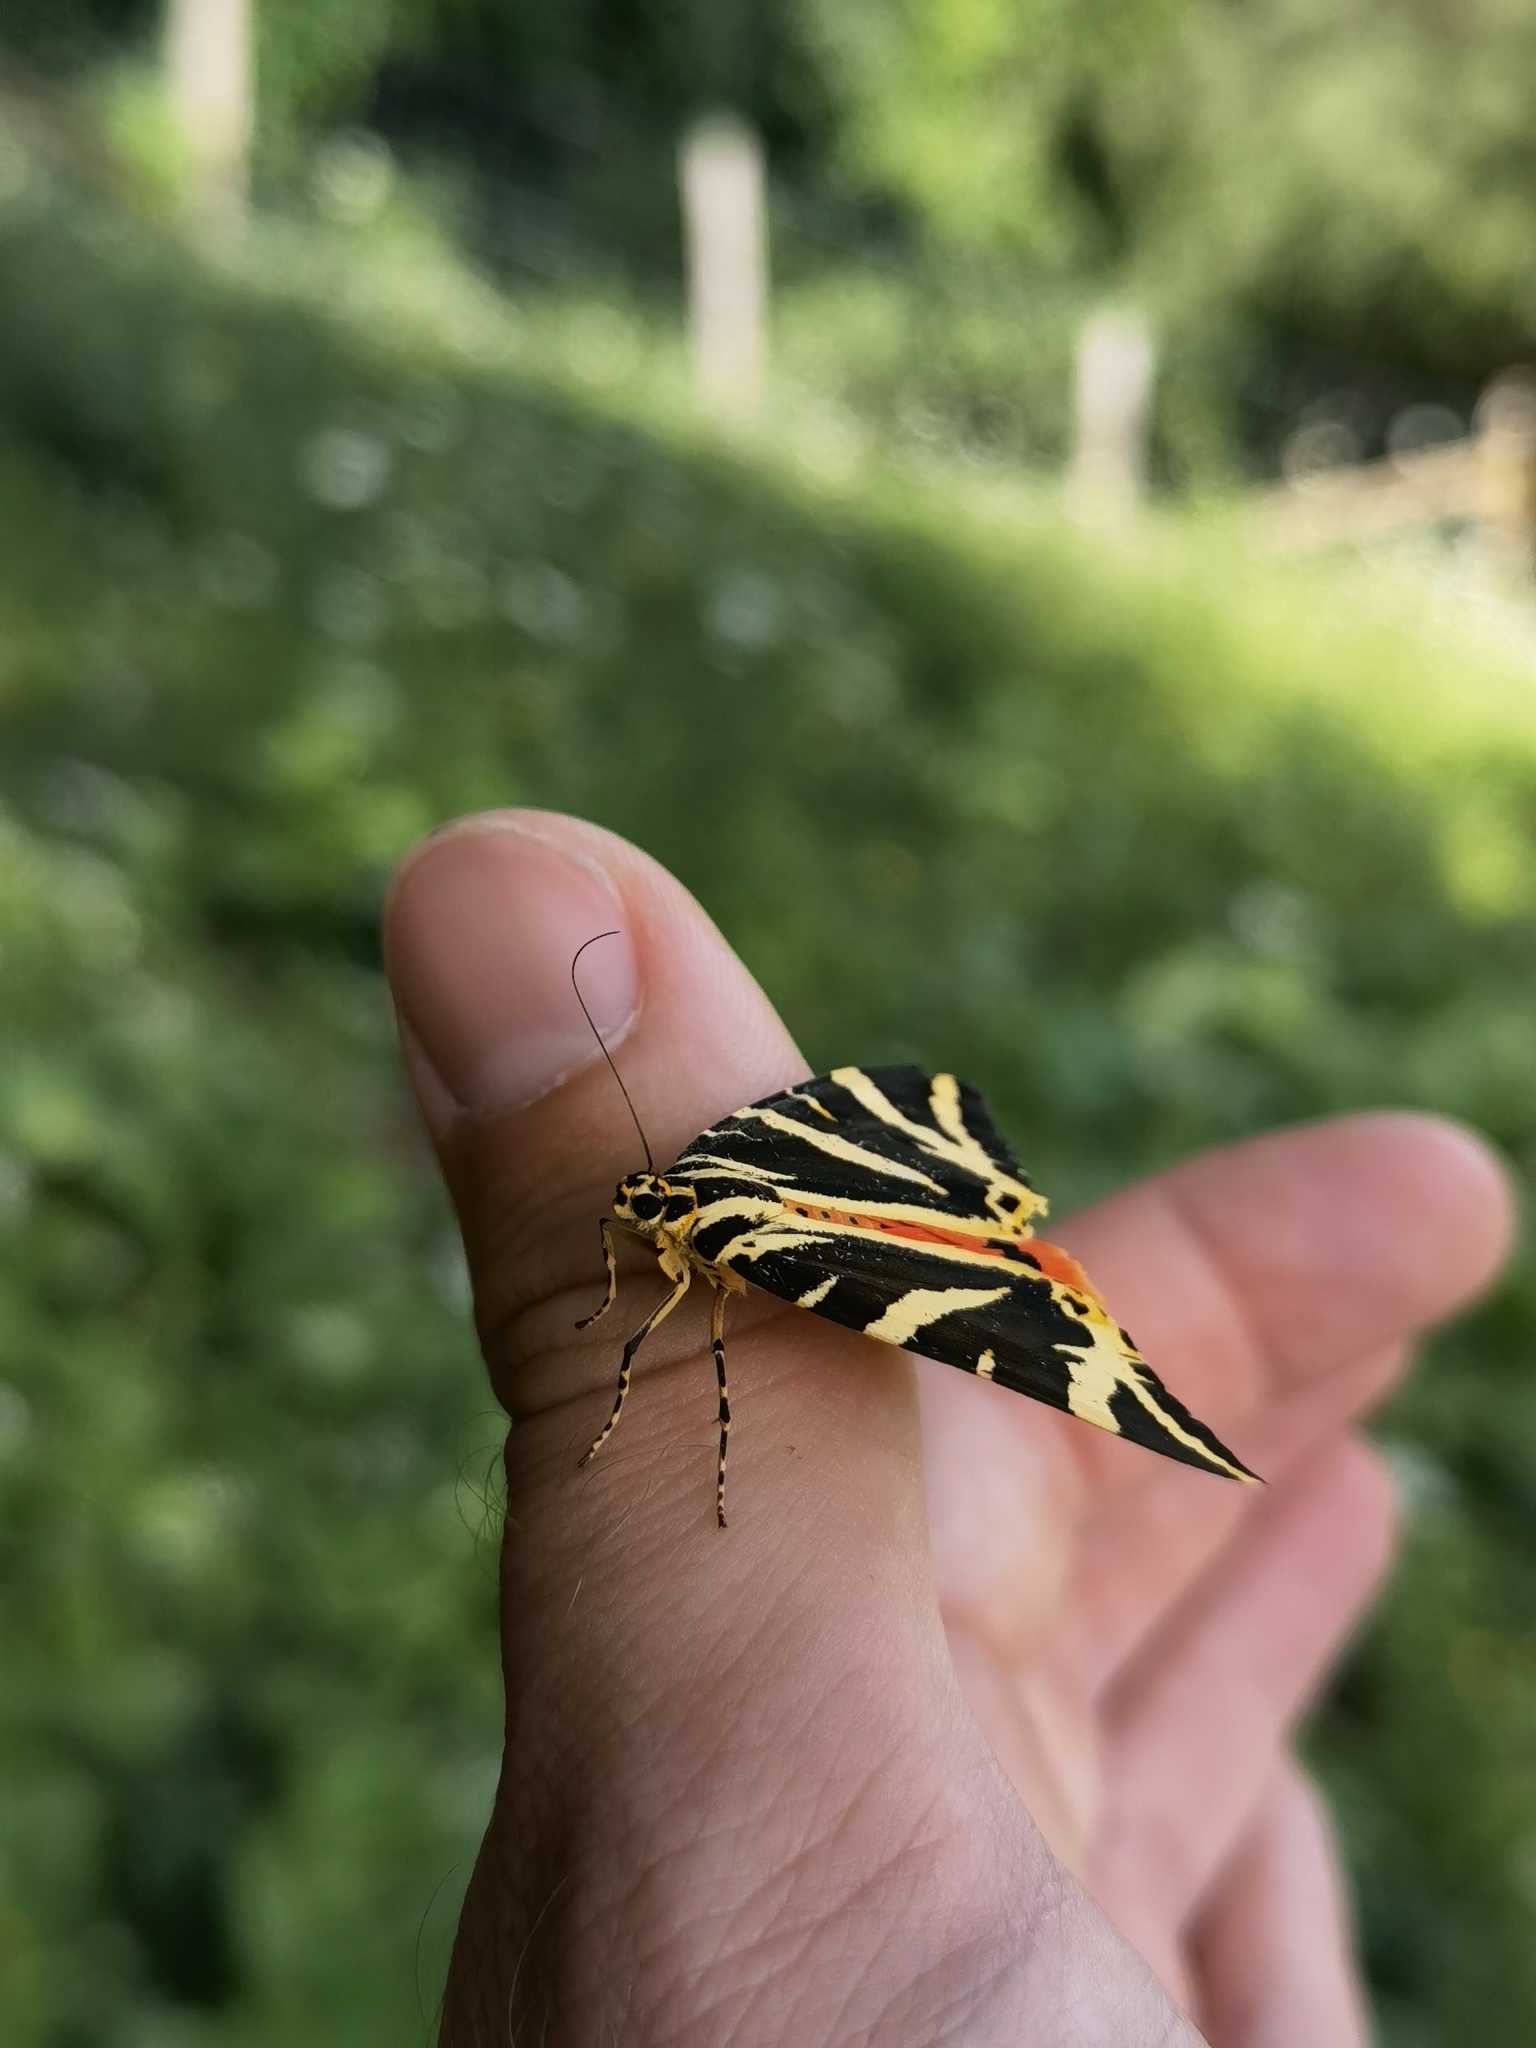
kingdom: Animalia
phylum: Arthropoda
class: Insecta
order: Lepidoptera
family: Erebidae
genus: Euplagia
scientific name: Euplagia quadripunctaria
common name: Jersey tiger
